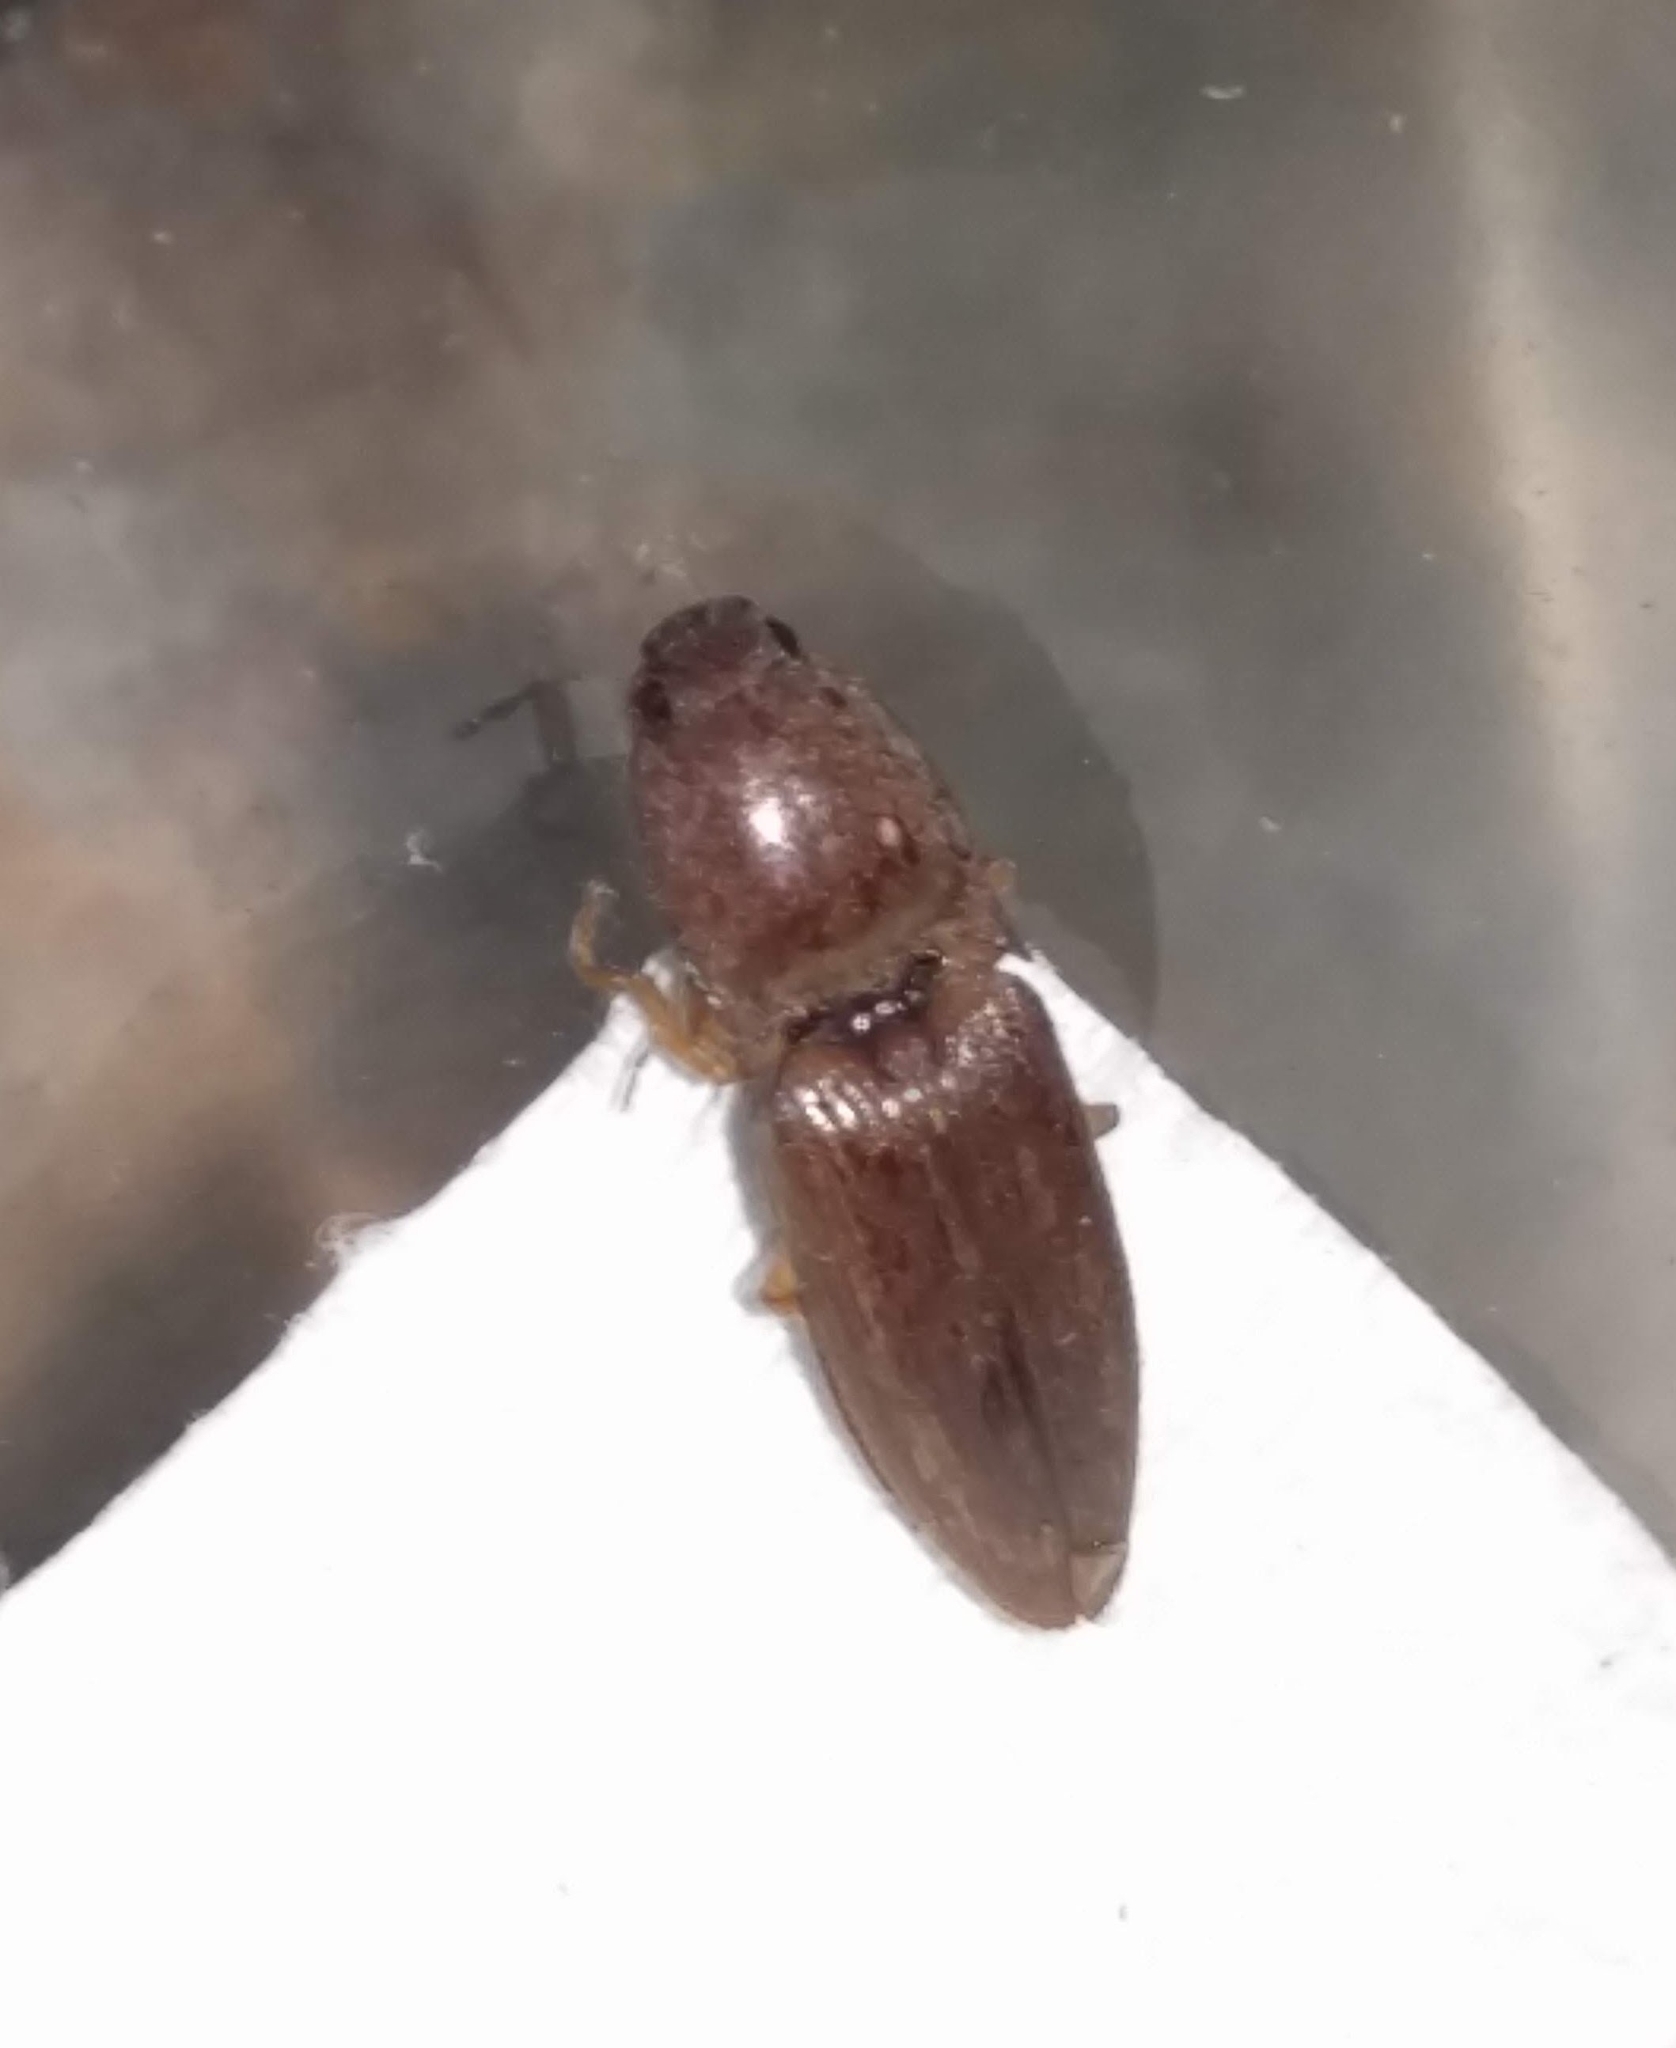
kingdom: Animalia
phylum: Arthropoda
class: Insecta
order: Coleoptera
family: Elateridae
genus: Monocrepidius
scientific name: Monocrepidius lividus
